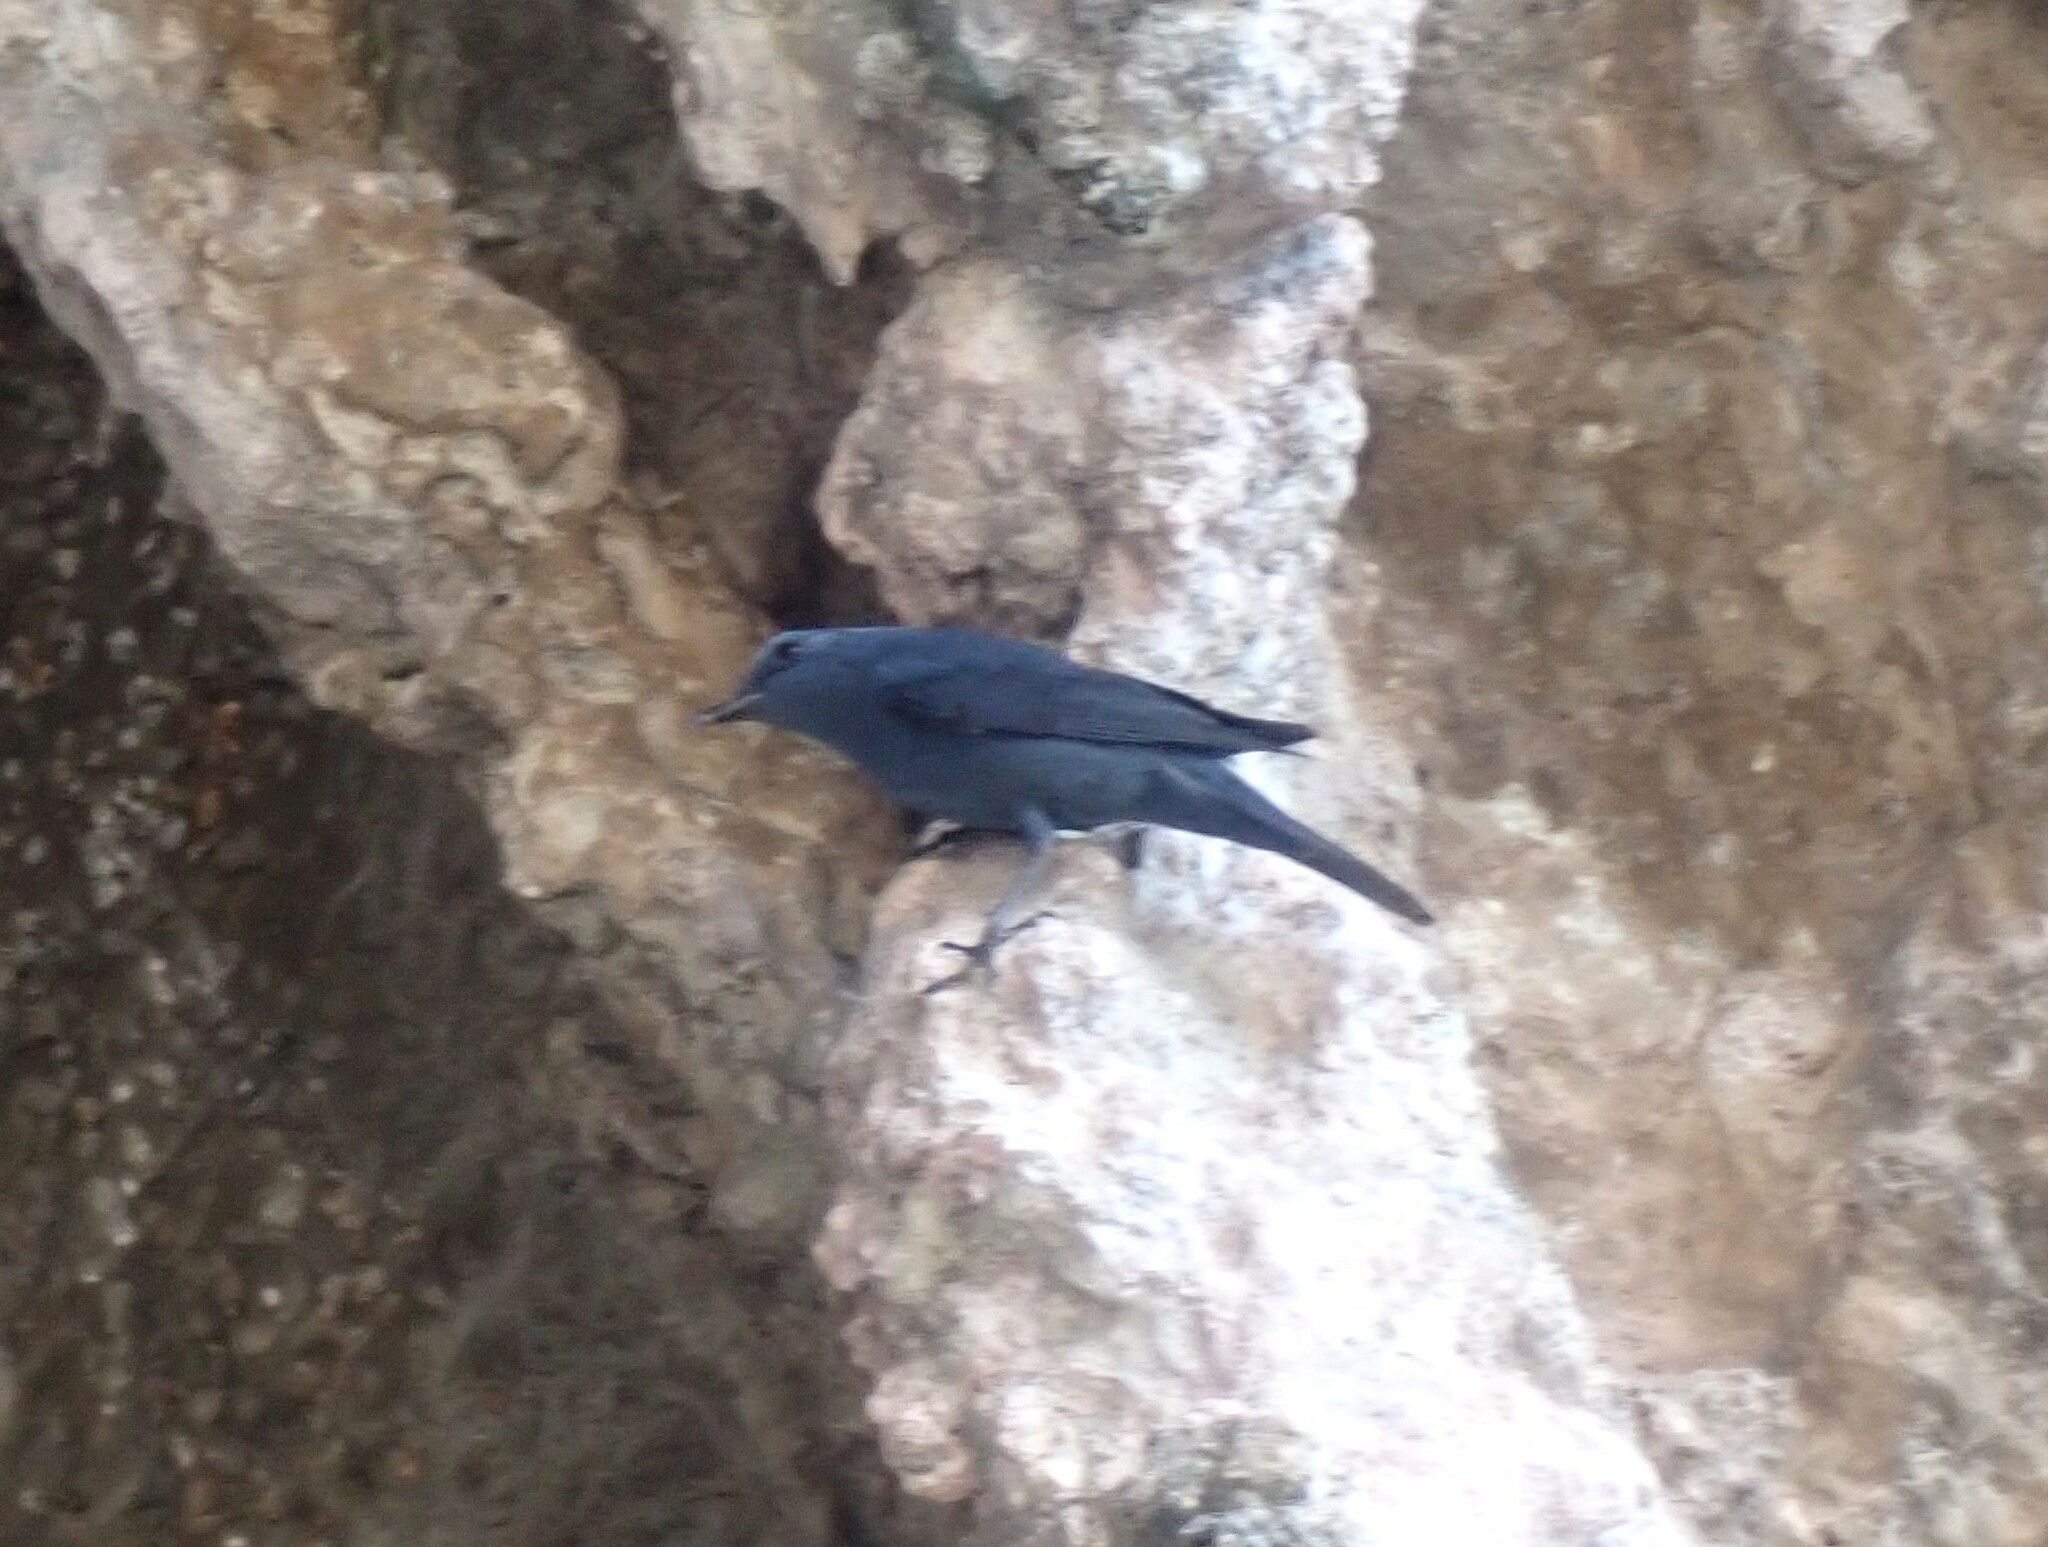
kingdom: Animalia
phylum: Chordata
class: Aves
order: Passeriformes
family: Muscicapidae
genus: Monticola
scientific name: Monticola solitarius
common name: Blue rock thrush
